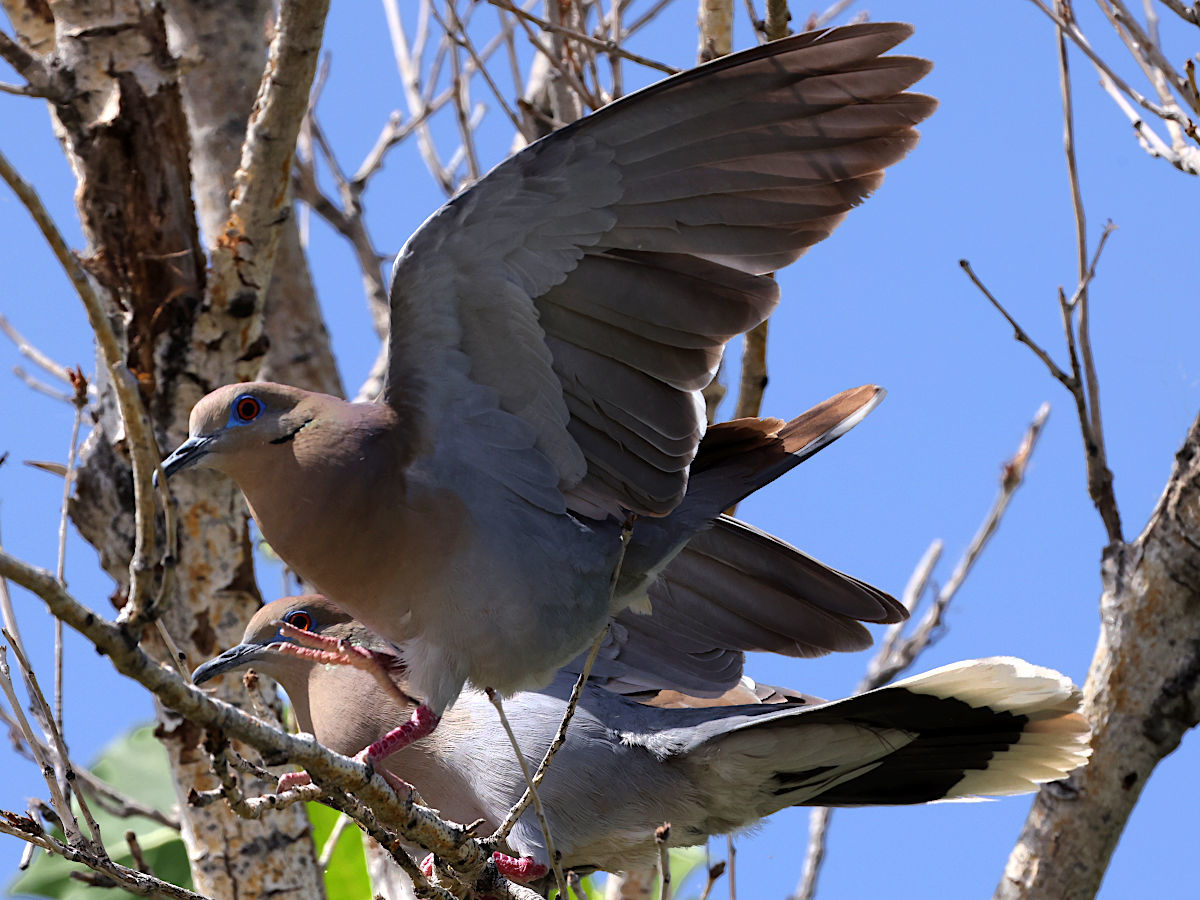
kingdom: Animalia
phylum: Chordata
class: Aves
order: Columbiformes
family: Columbidae
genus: Zenaida
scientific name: Zenaida asiatica
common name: White-winged dove
